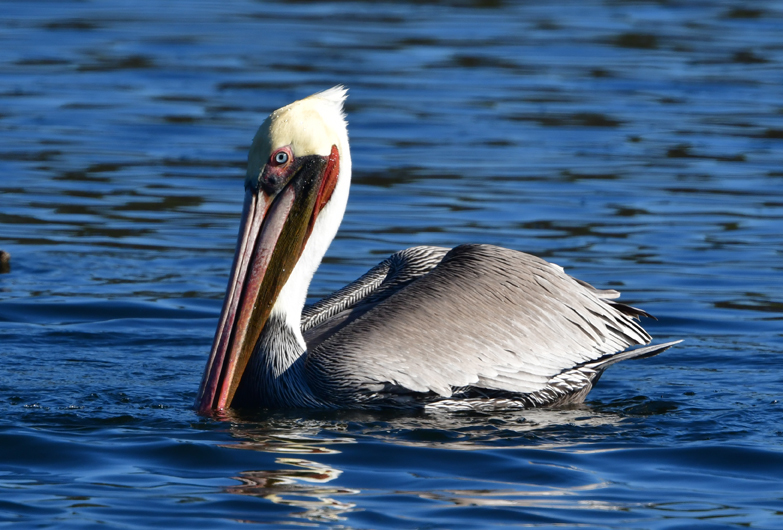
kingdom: Animalia
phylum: Chordata
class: Aves
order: Pelecaniformes
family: Pelecanidae
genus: Pelecanus
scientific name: Pelecanus occidentalis
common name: Brown pelican
